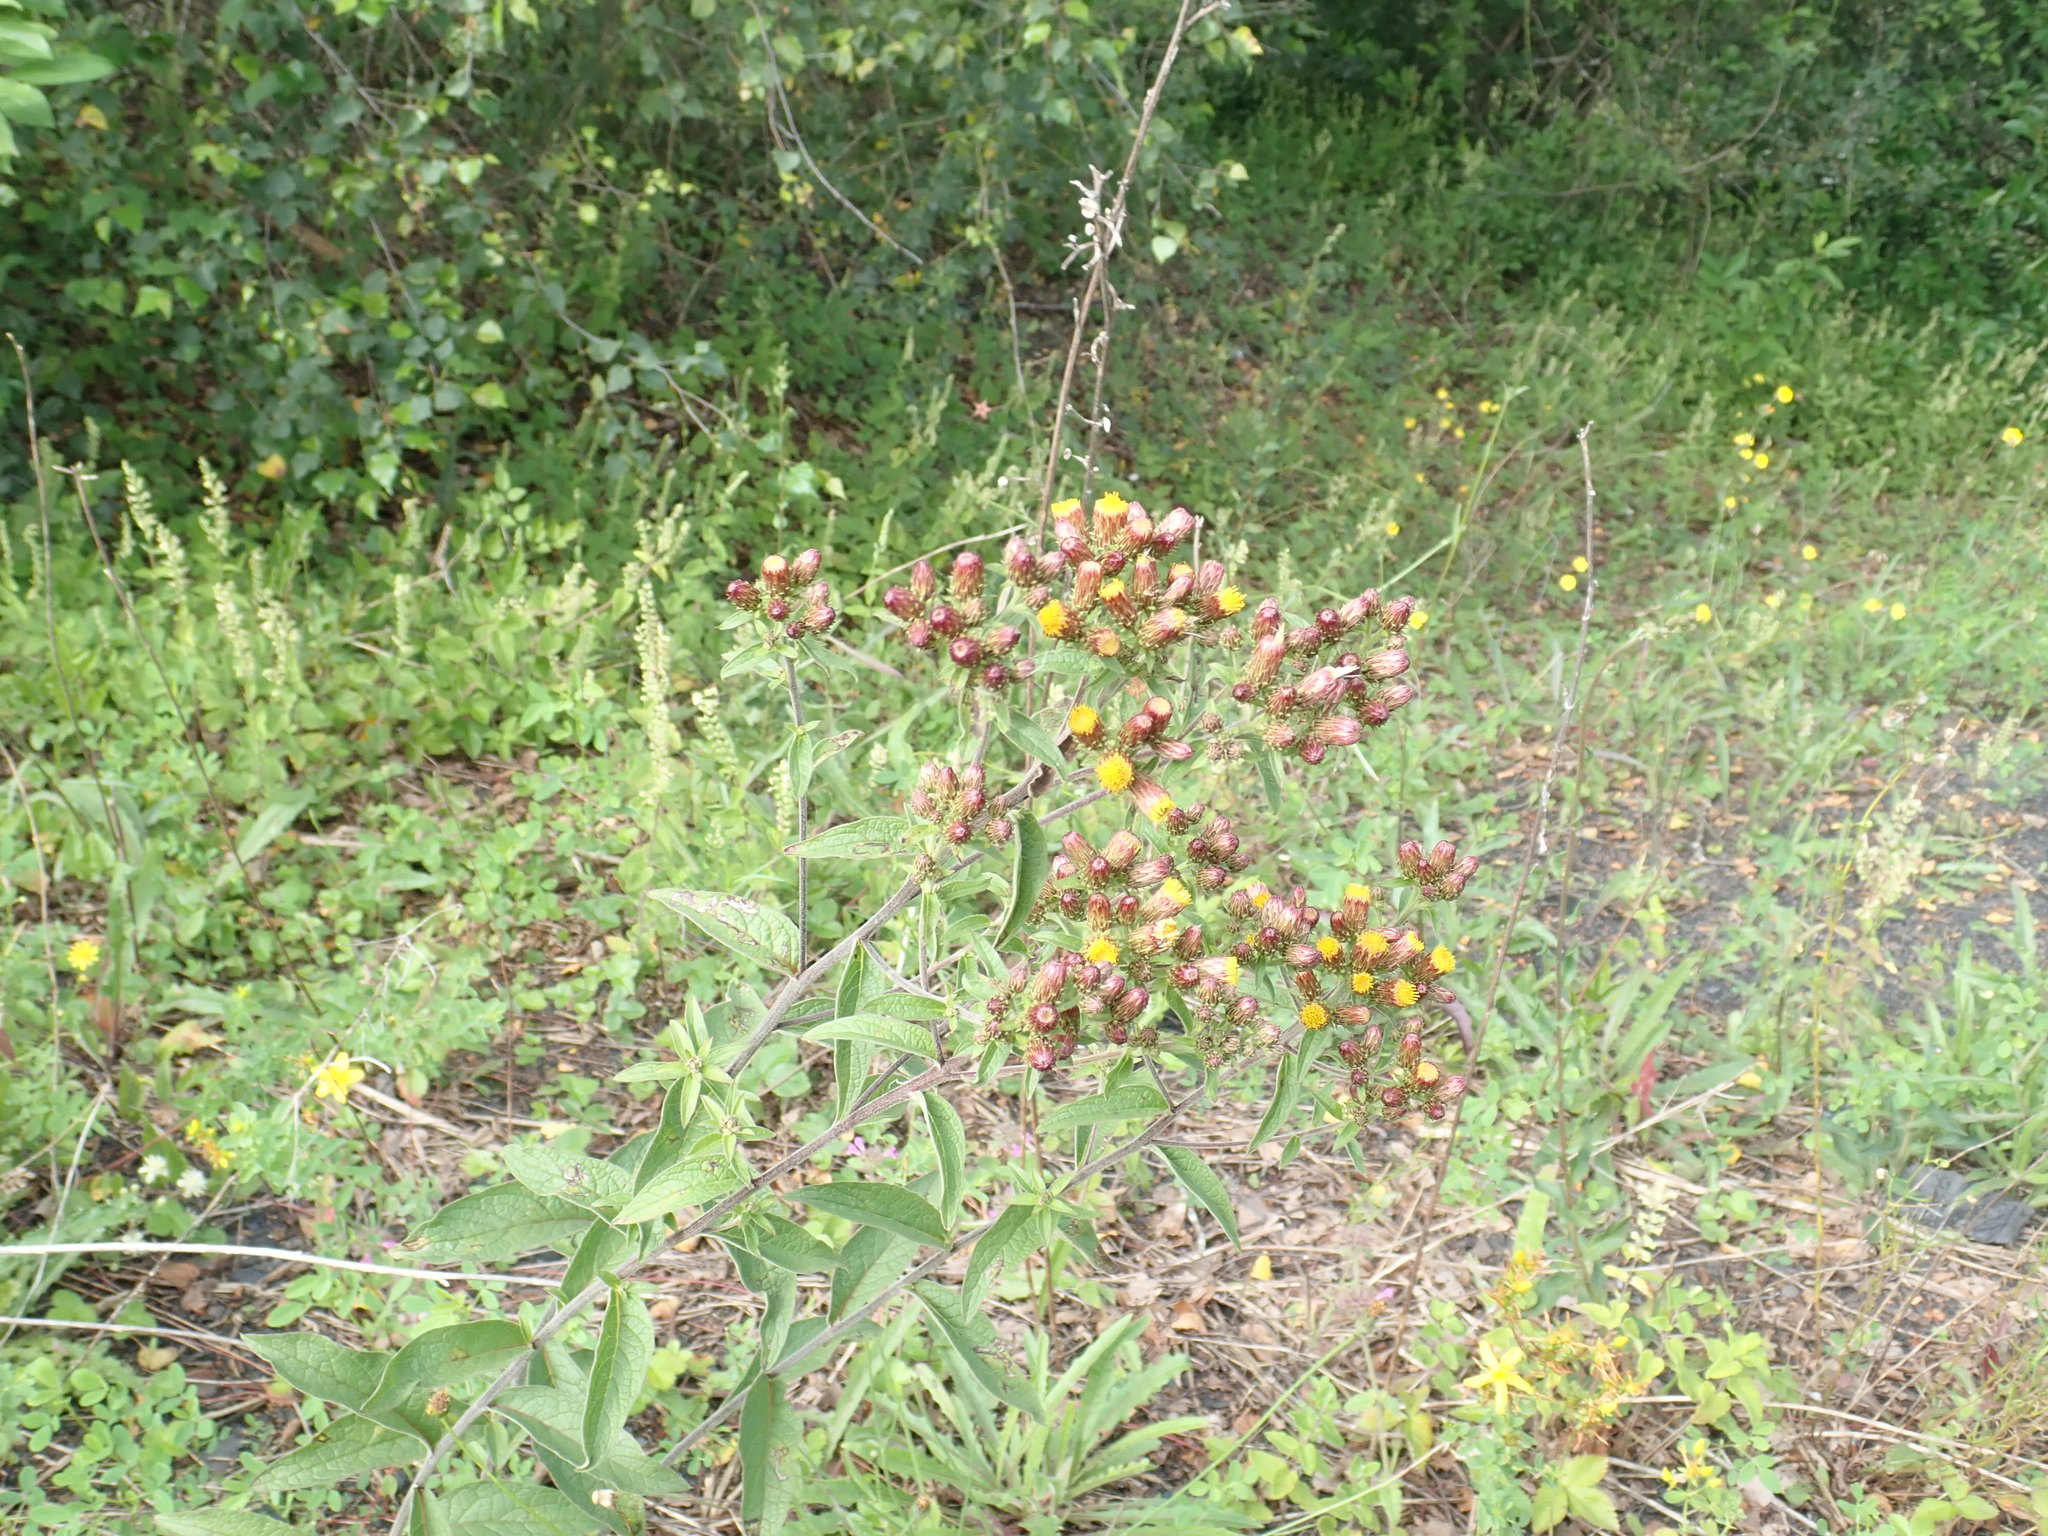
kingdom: Plantae
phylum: Tracheophyta
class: Magnoliopsida
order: Asterales
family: Asteraceae
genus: Pentanema
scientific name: Pentanema squarrosum
